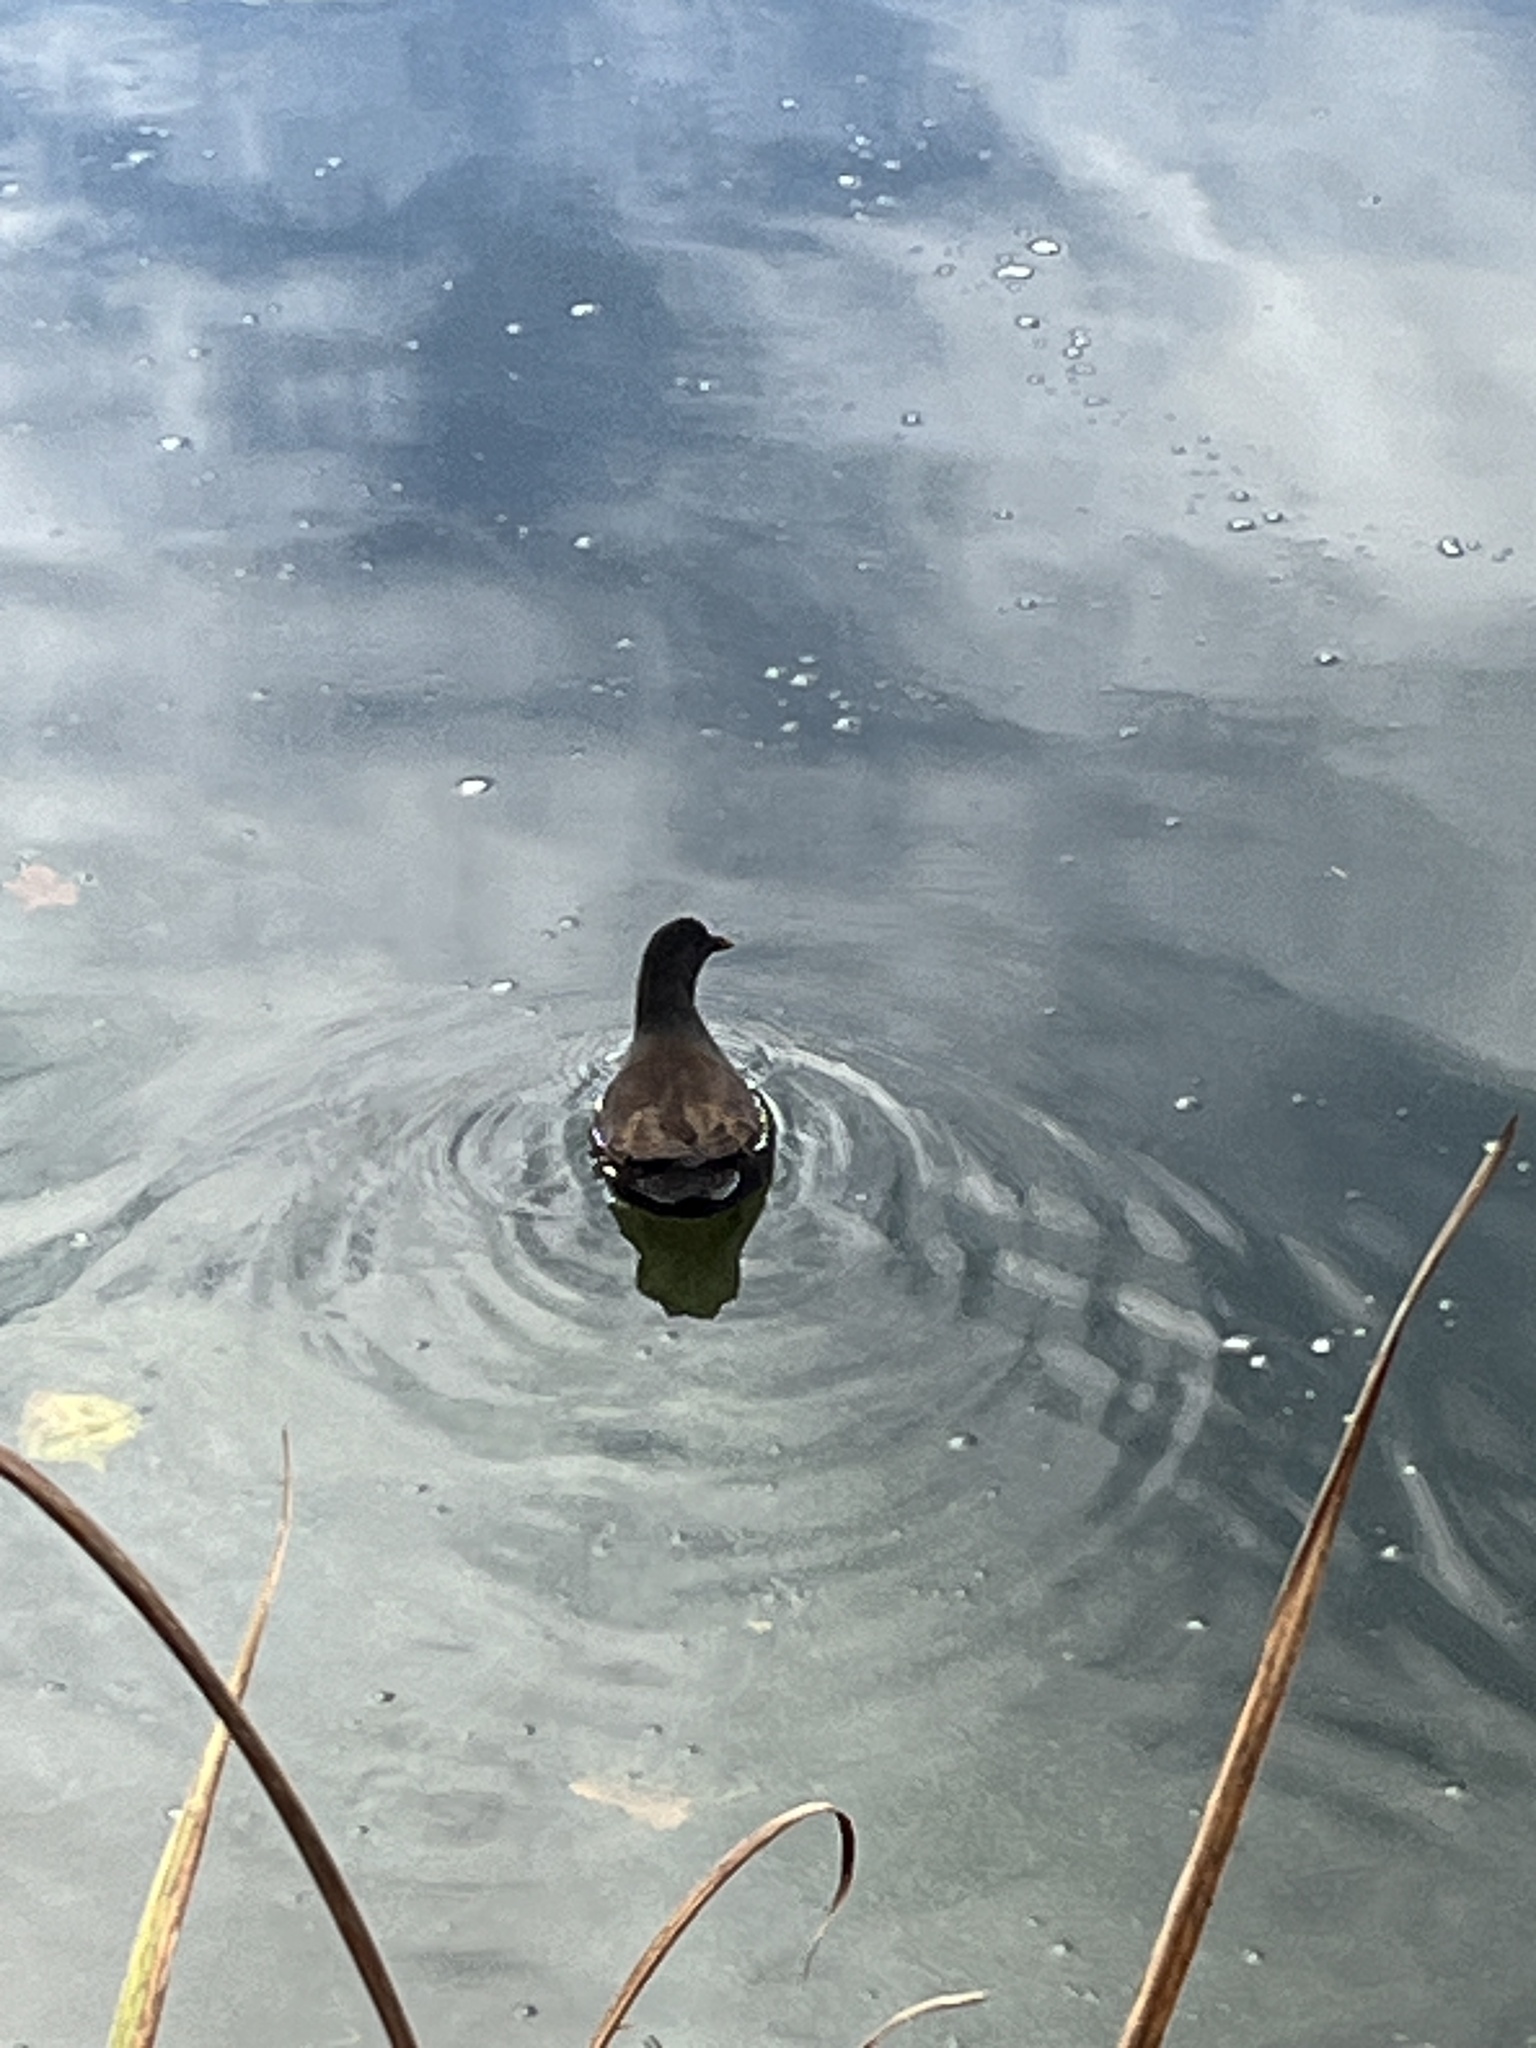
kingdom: Animalia
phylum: Chordata
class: Aves
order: Gruiformes
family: Rallidae
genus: Gallinula
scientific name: Gallinula chloropus
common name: Common moorhen
